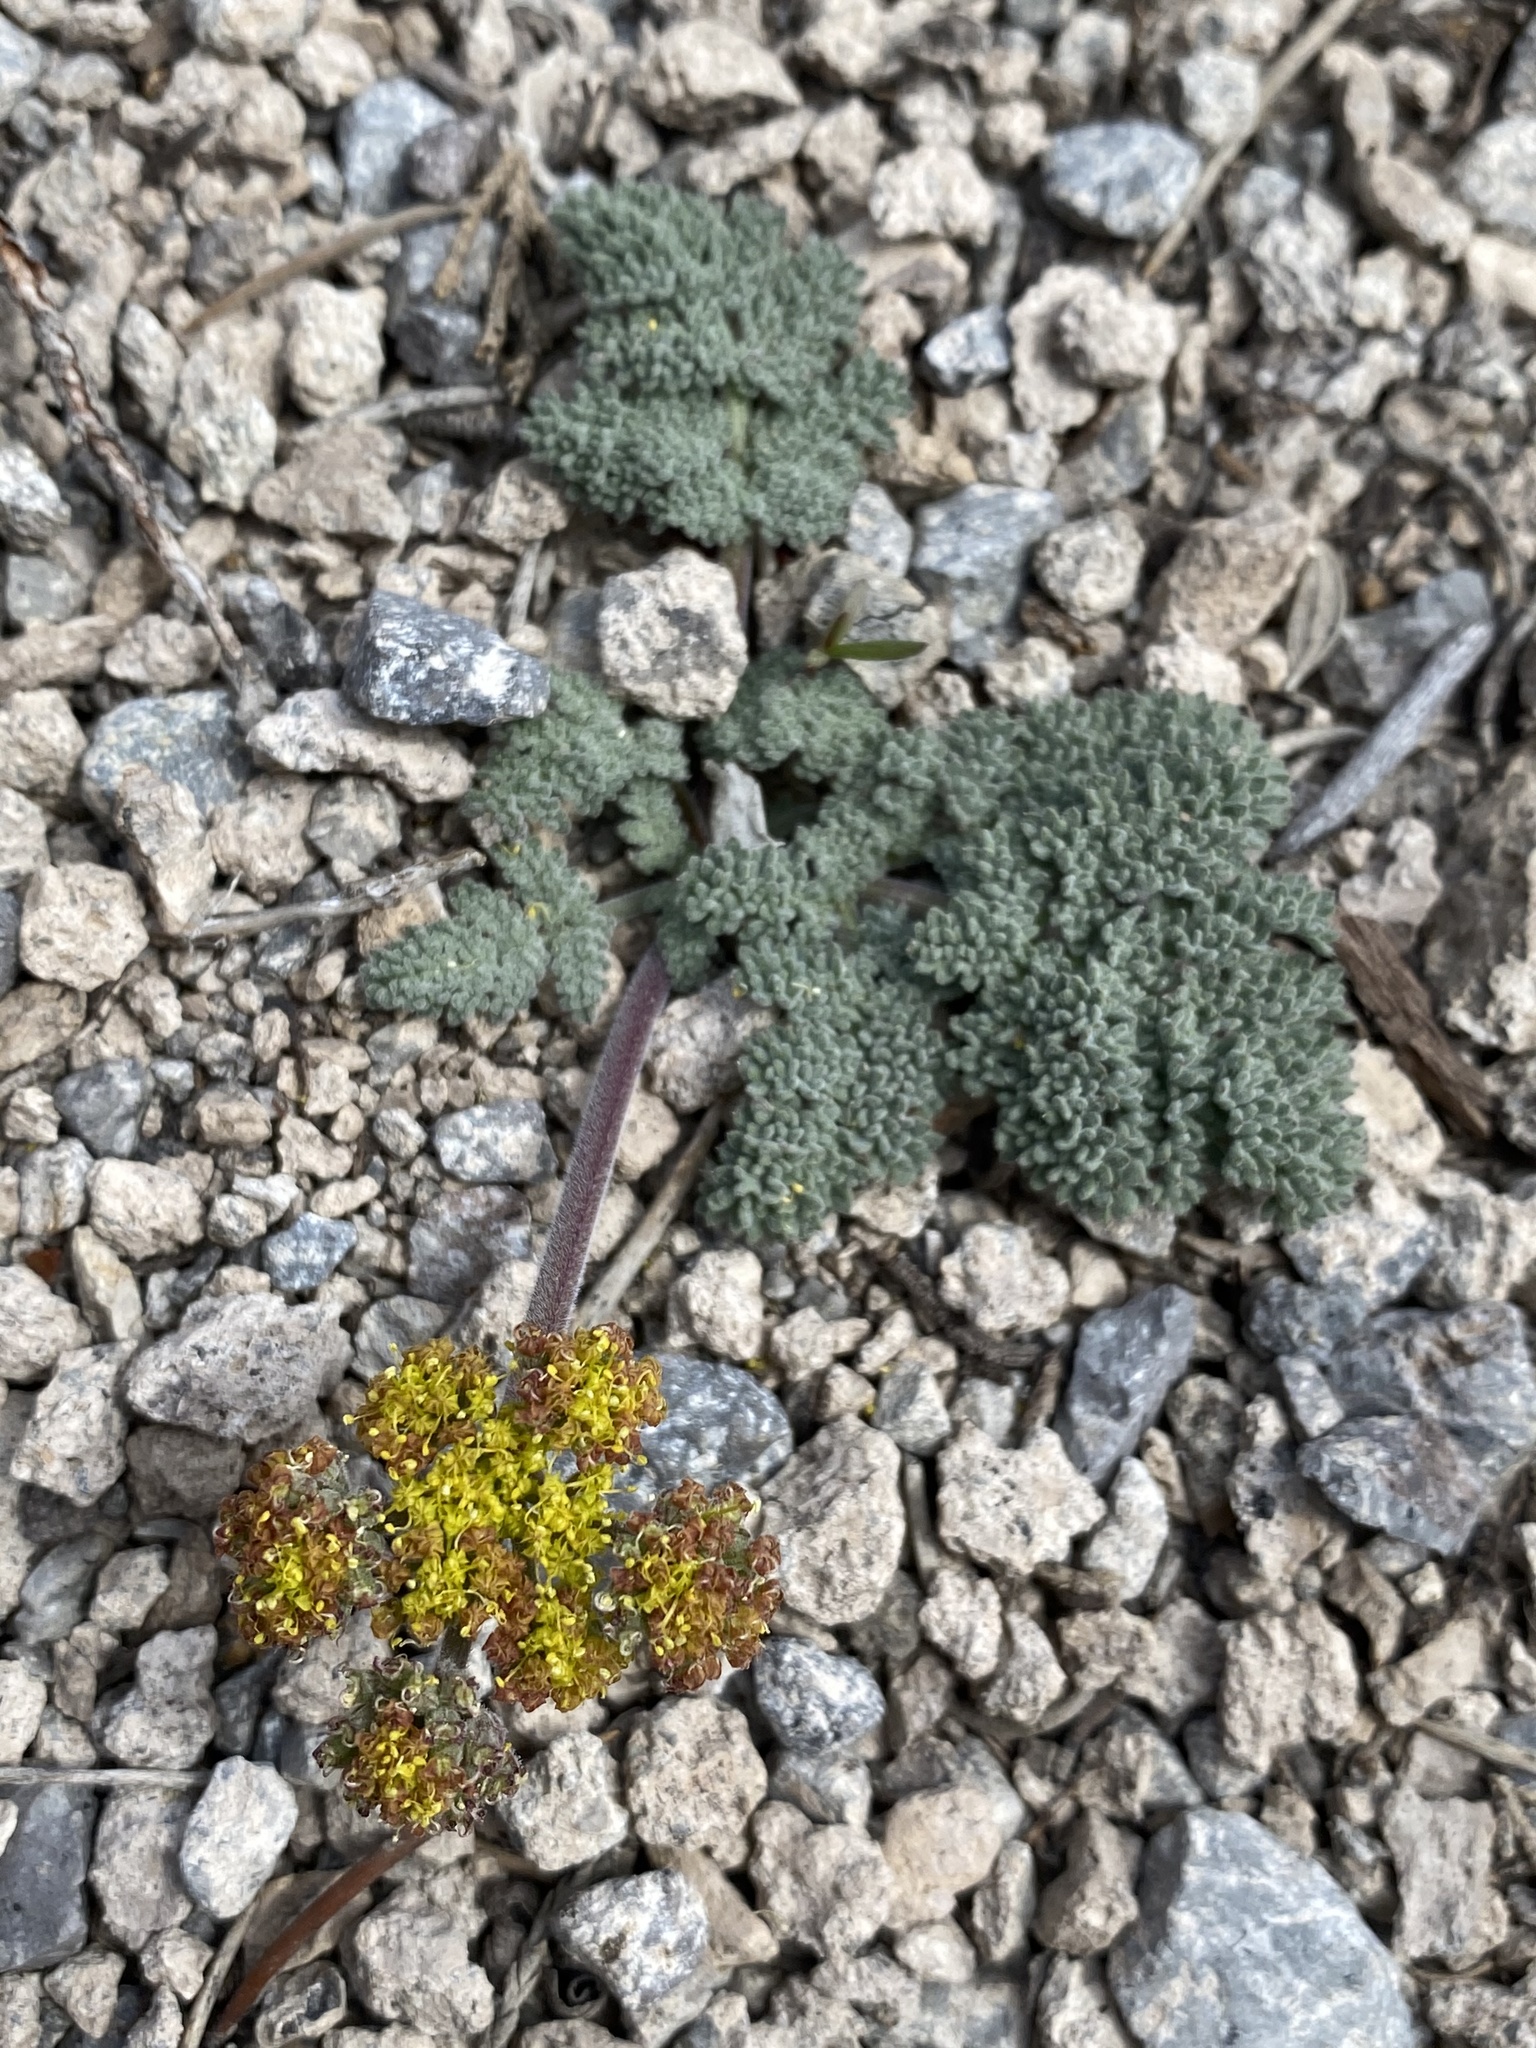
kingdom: Plantae
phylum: Tracheophyta
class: Magnoliopsida
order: Apiales
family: Apiaceae
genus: Lomatium
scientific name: Lomatium foeniculaceum
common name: Desert-parsley
